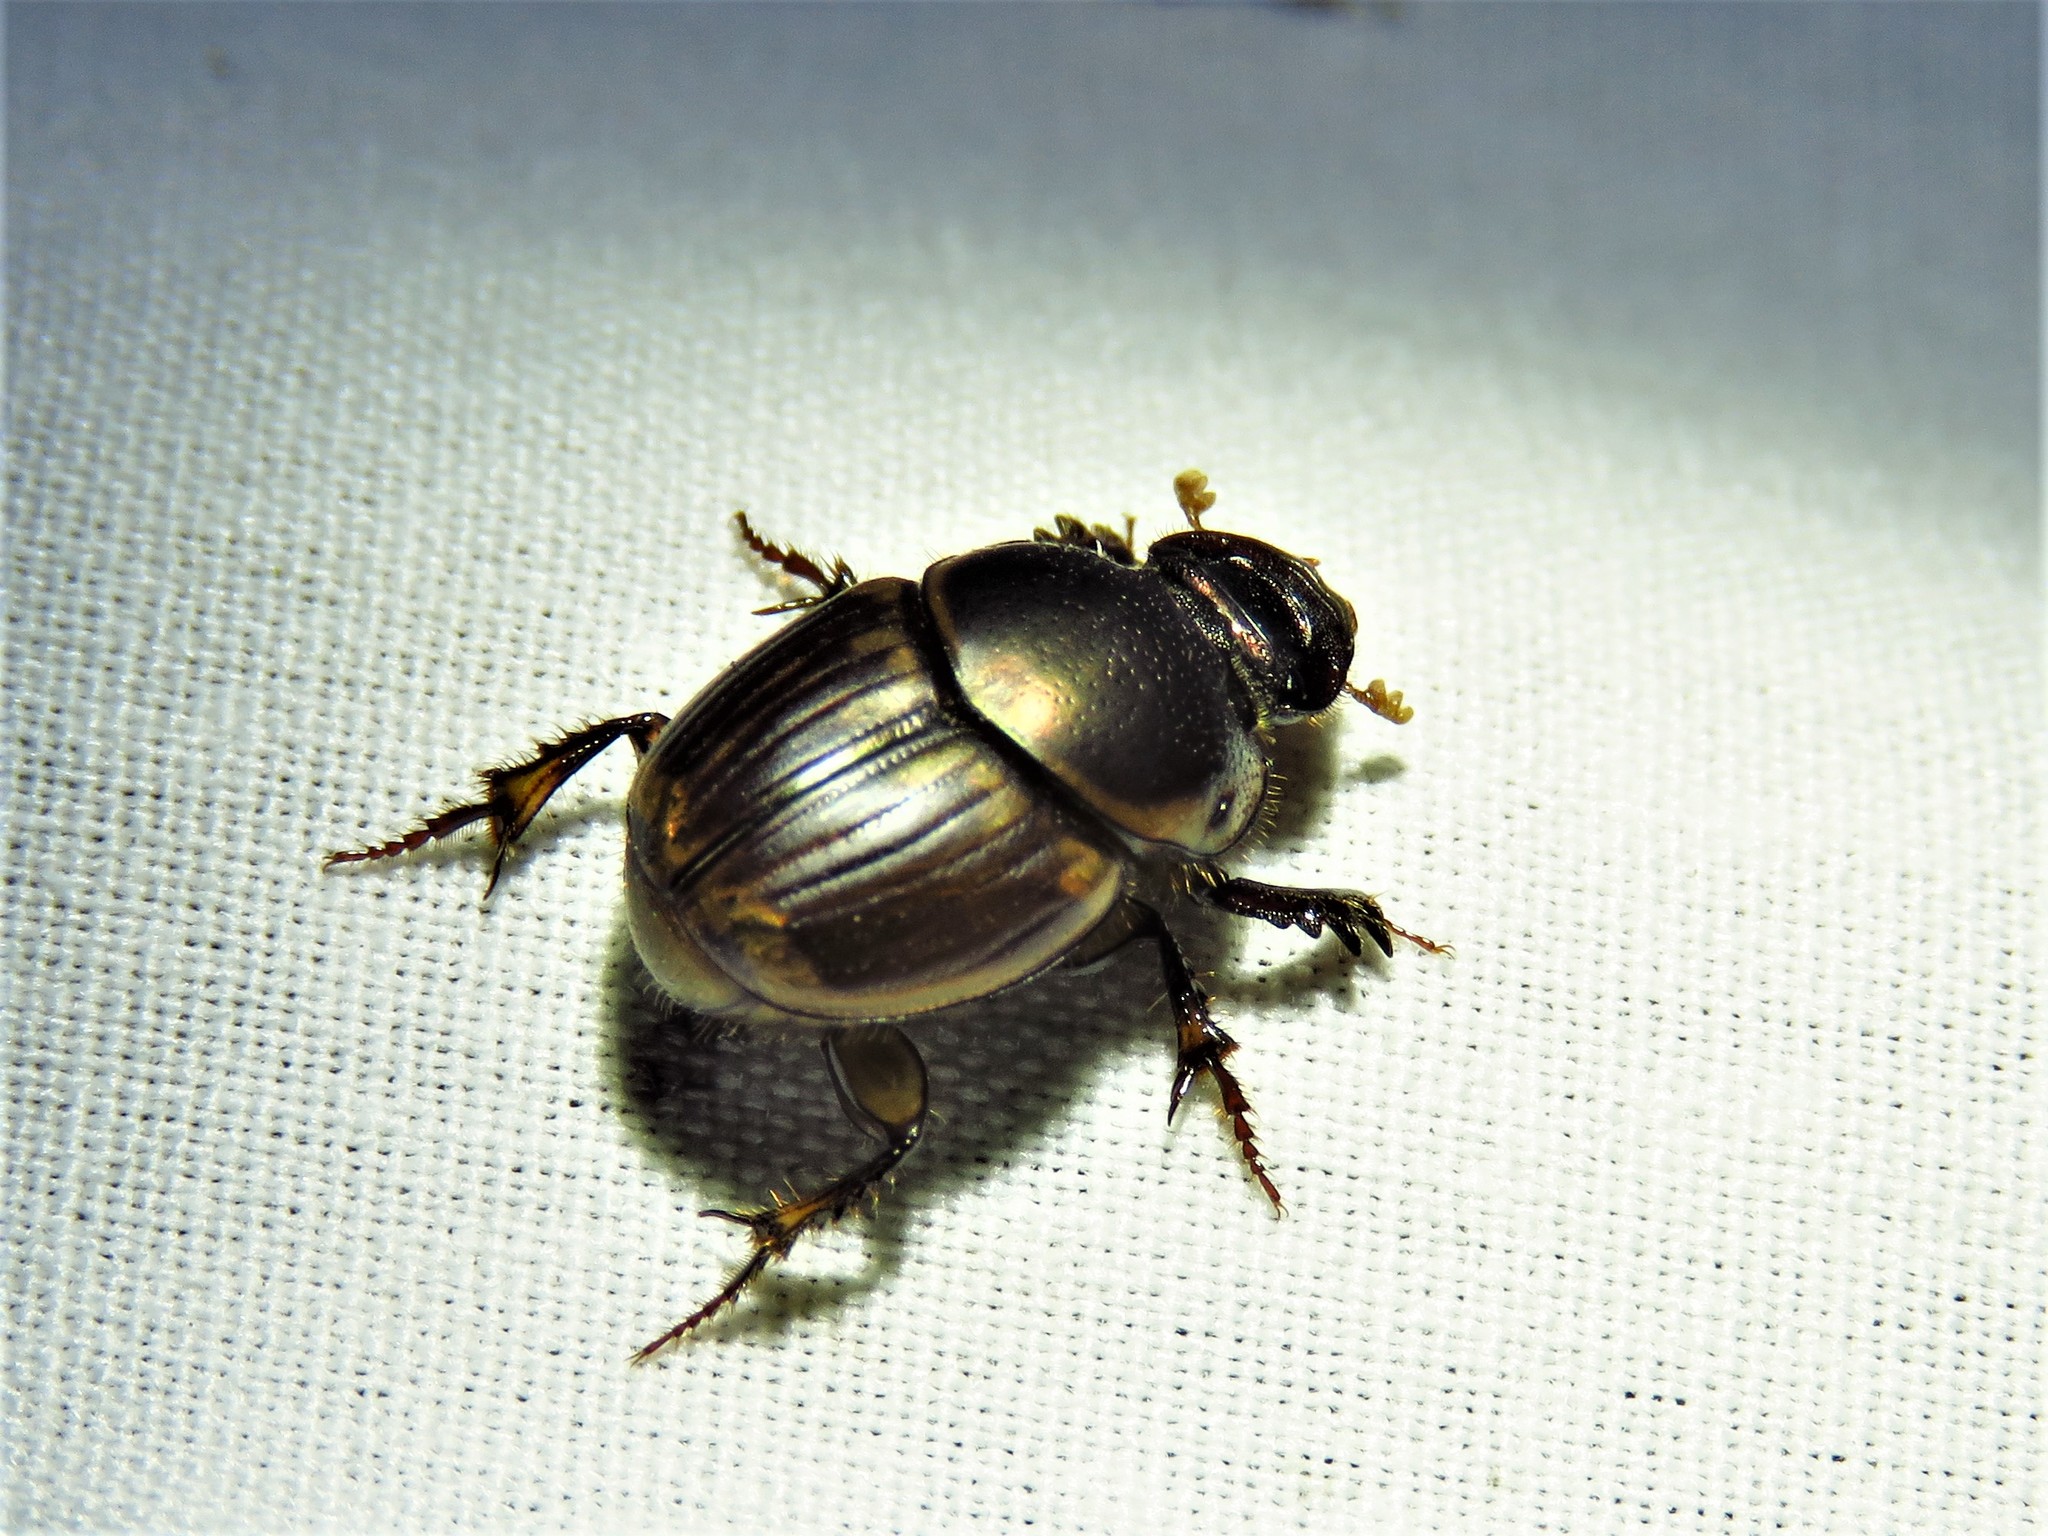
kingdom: Animalia
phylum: Arthropoda
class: Insecta
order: Coleoptera
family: Scarabaeidae
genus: Digitonthophagus
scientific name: Digitonthophagus gazella
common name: Brown dung beetle
